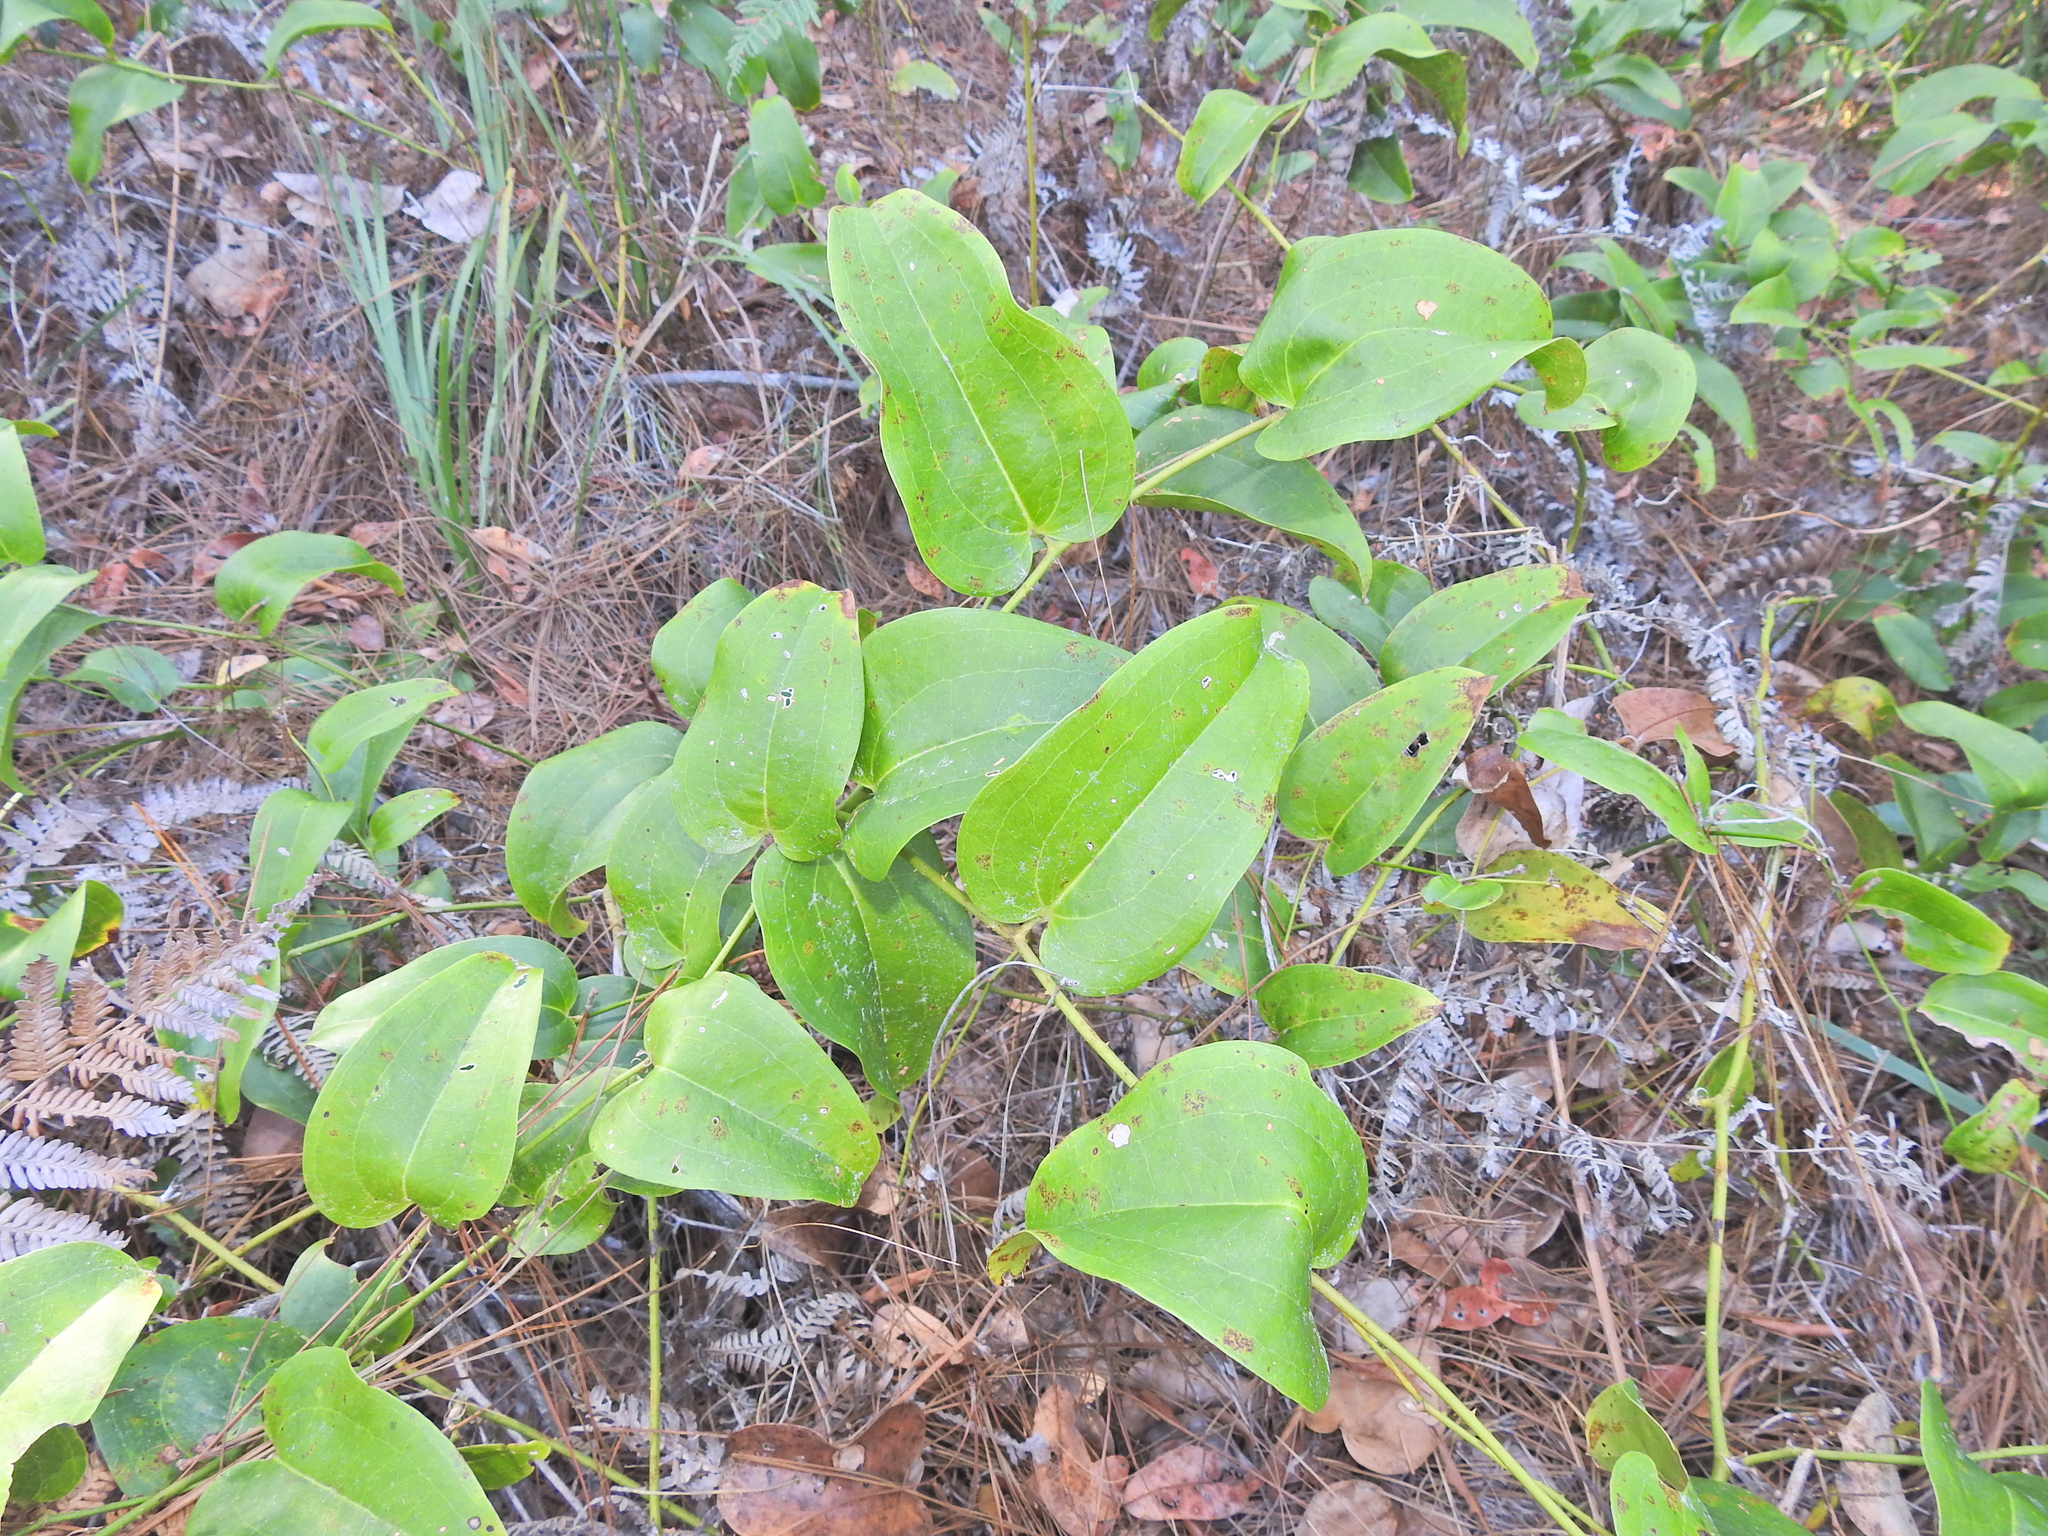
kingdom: Plantae
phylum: Tracheophyta
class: Liliopsida
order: Liliales
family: Smilacaceae
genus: Smilax
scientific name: Smilax australis
